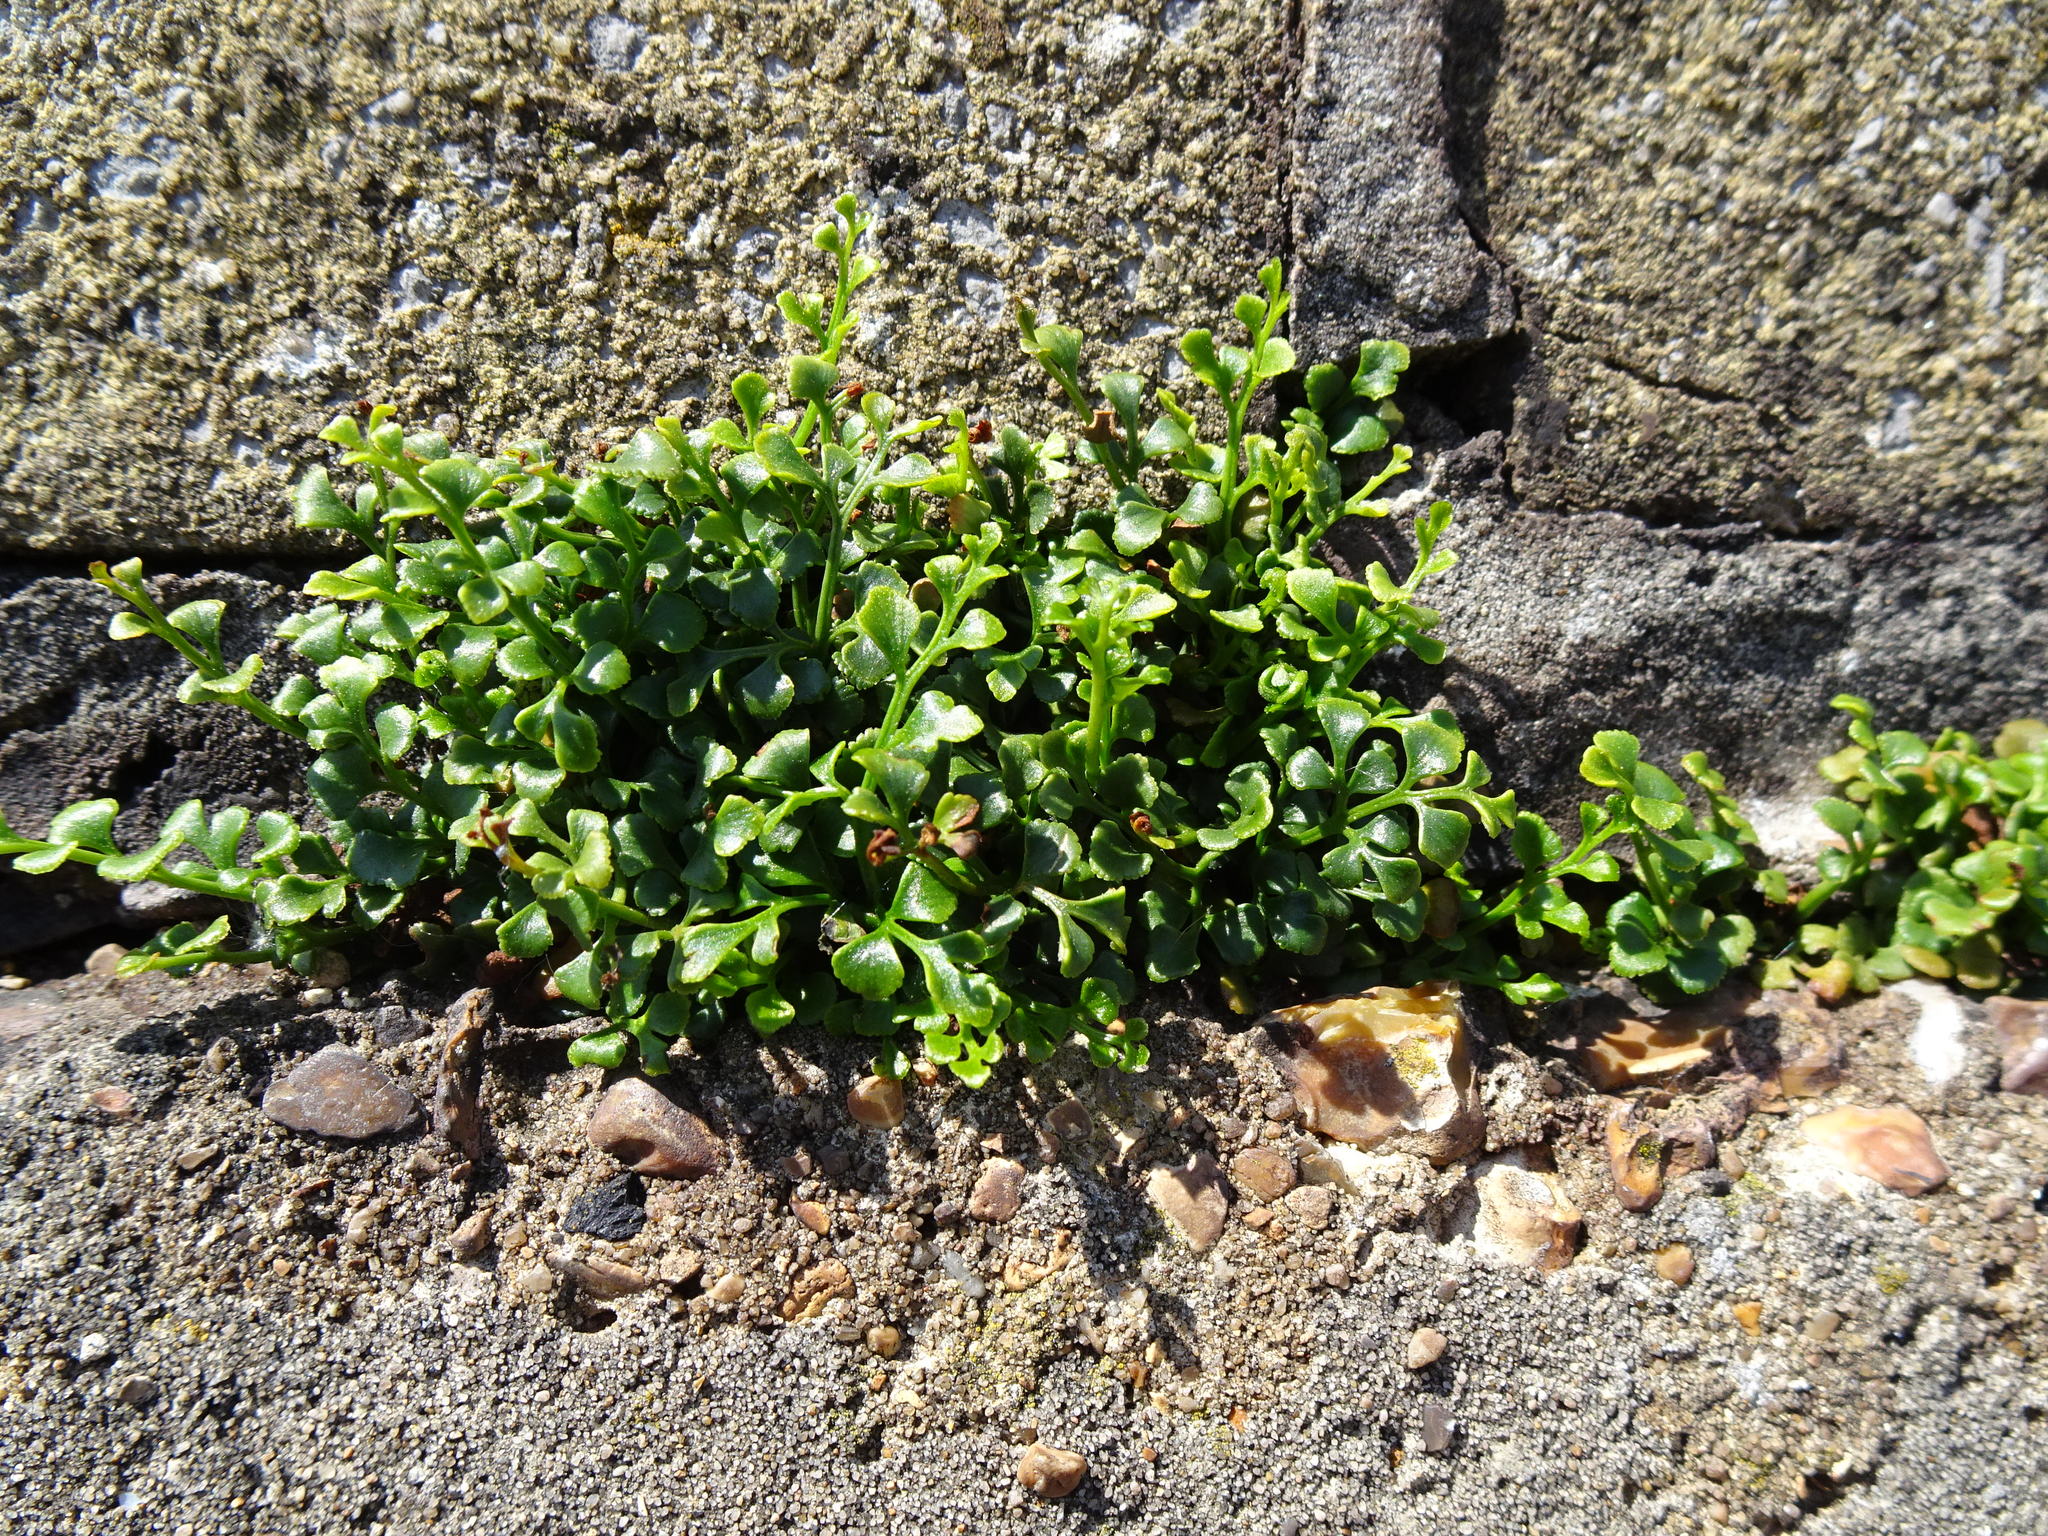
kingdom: Plantae
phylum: Tracheophyta
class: Polypodiopsida
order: Polypodiales
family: Aspleniaceae
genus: Asplenium
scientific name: Asplenium ruta-muraria
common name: Wall-rue
